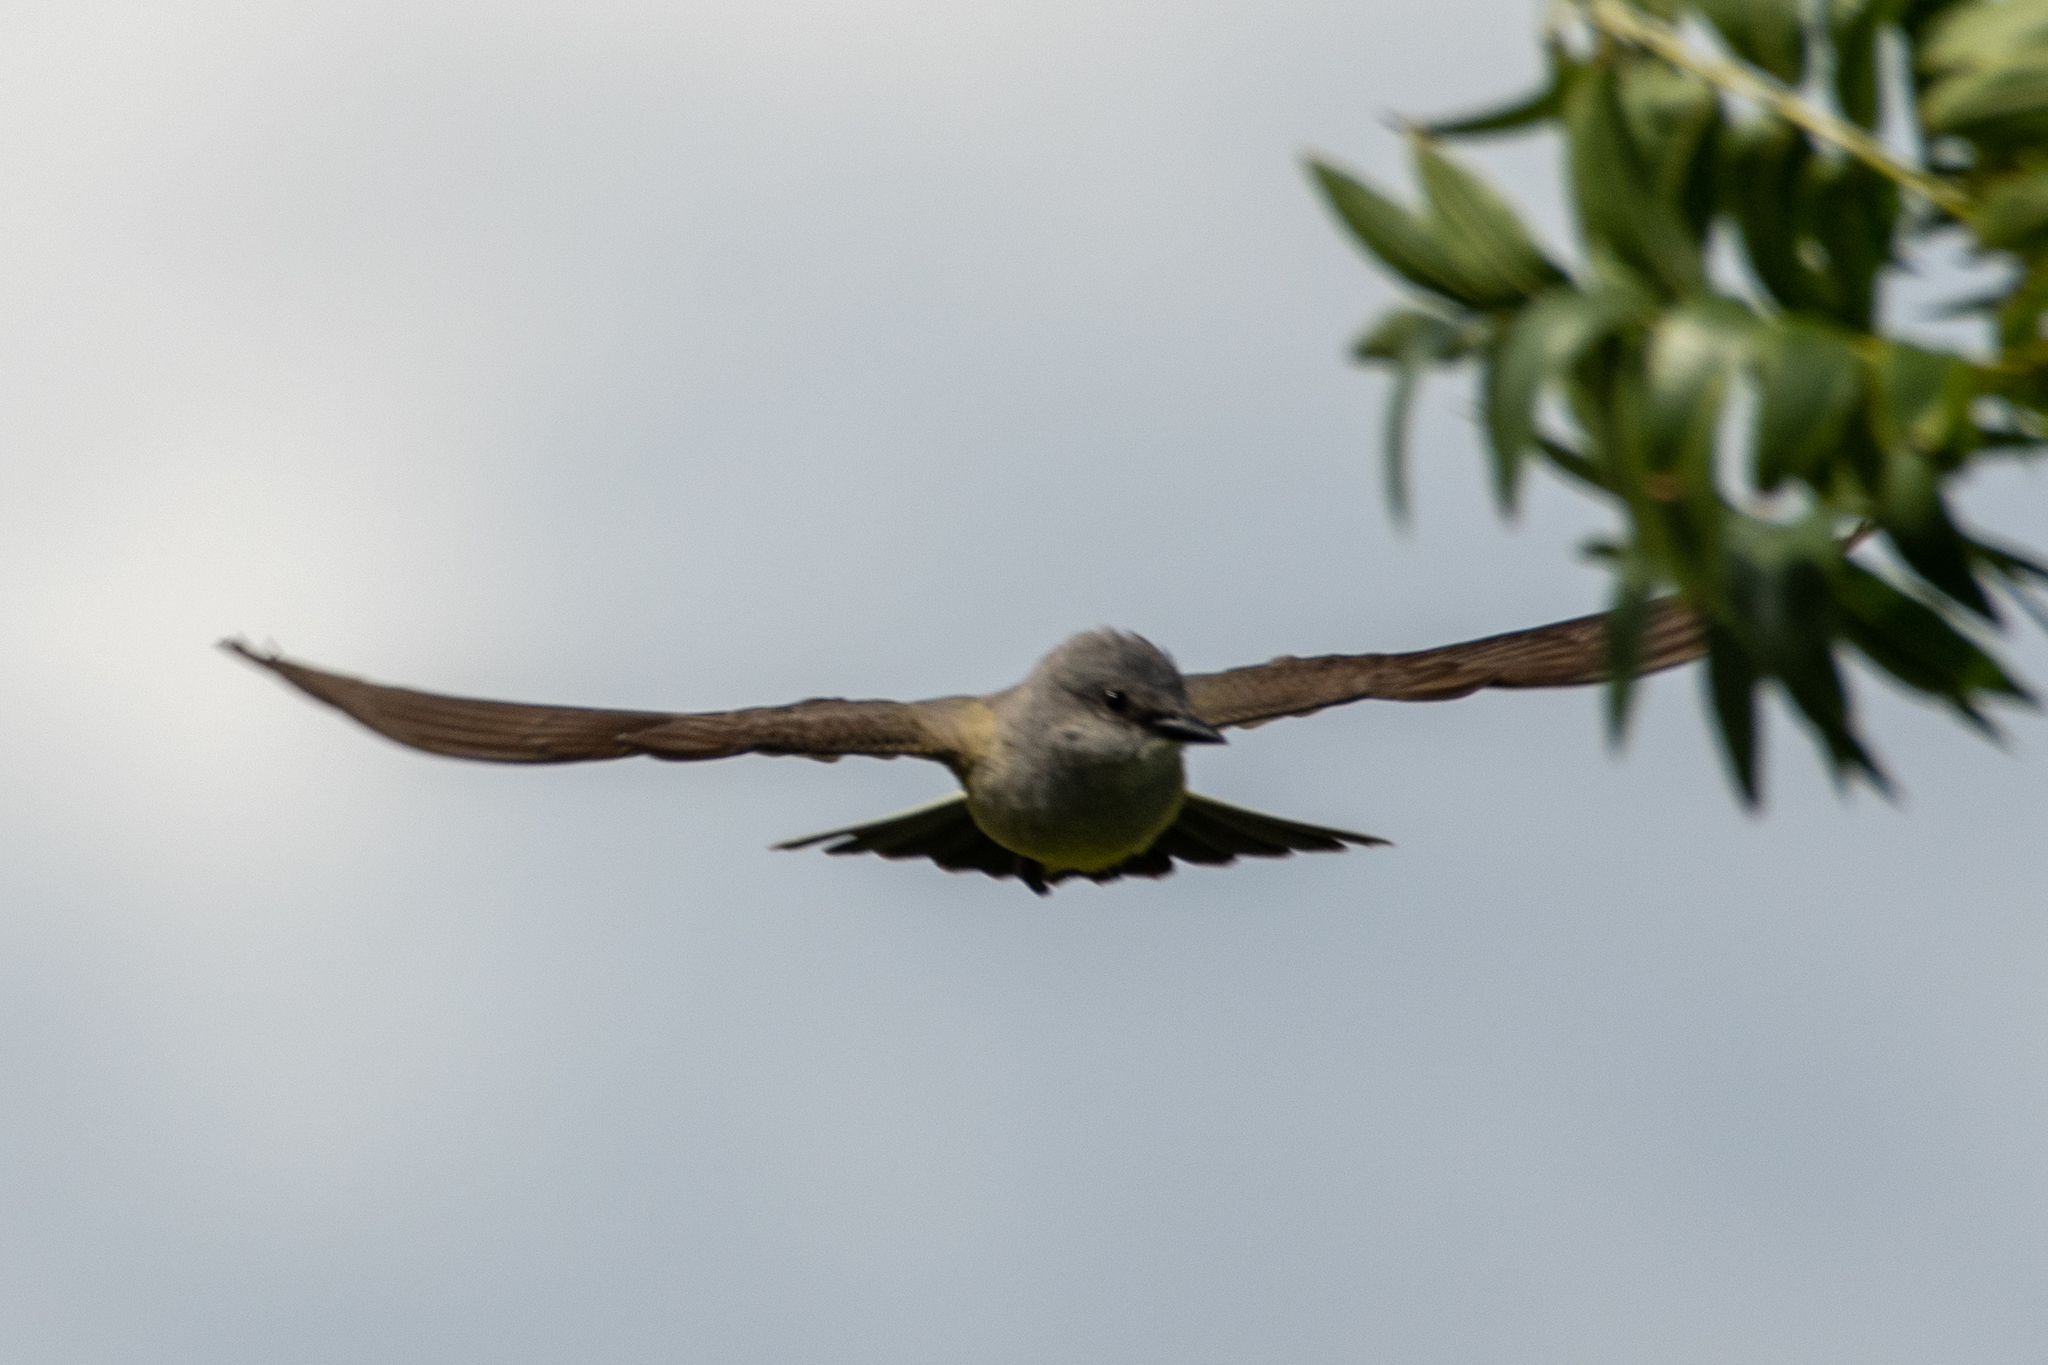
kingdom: Animalia
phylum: Chordata
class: Aves
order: Passeriformes
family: Tyrannidae
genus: Tyrannus
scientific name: Tyrannus verticalis
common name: Western kingbird
